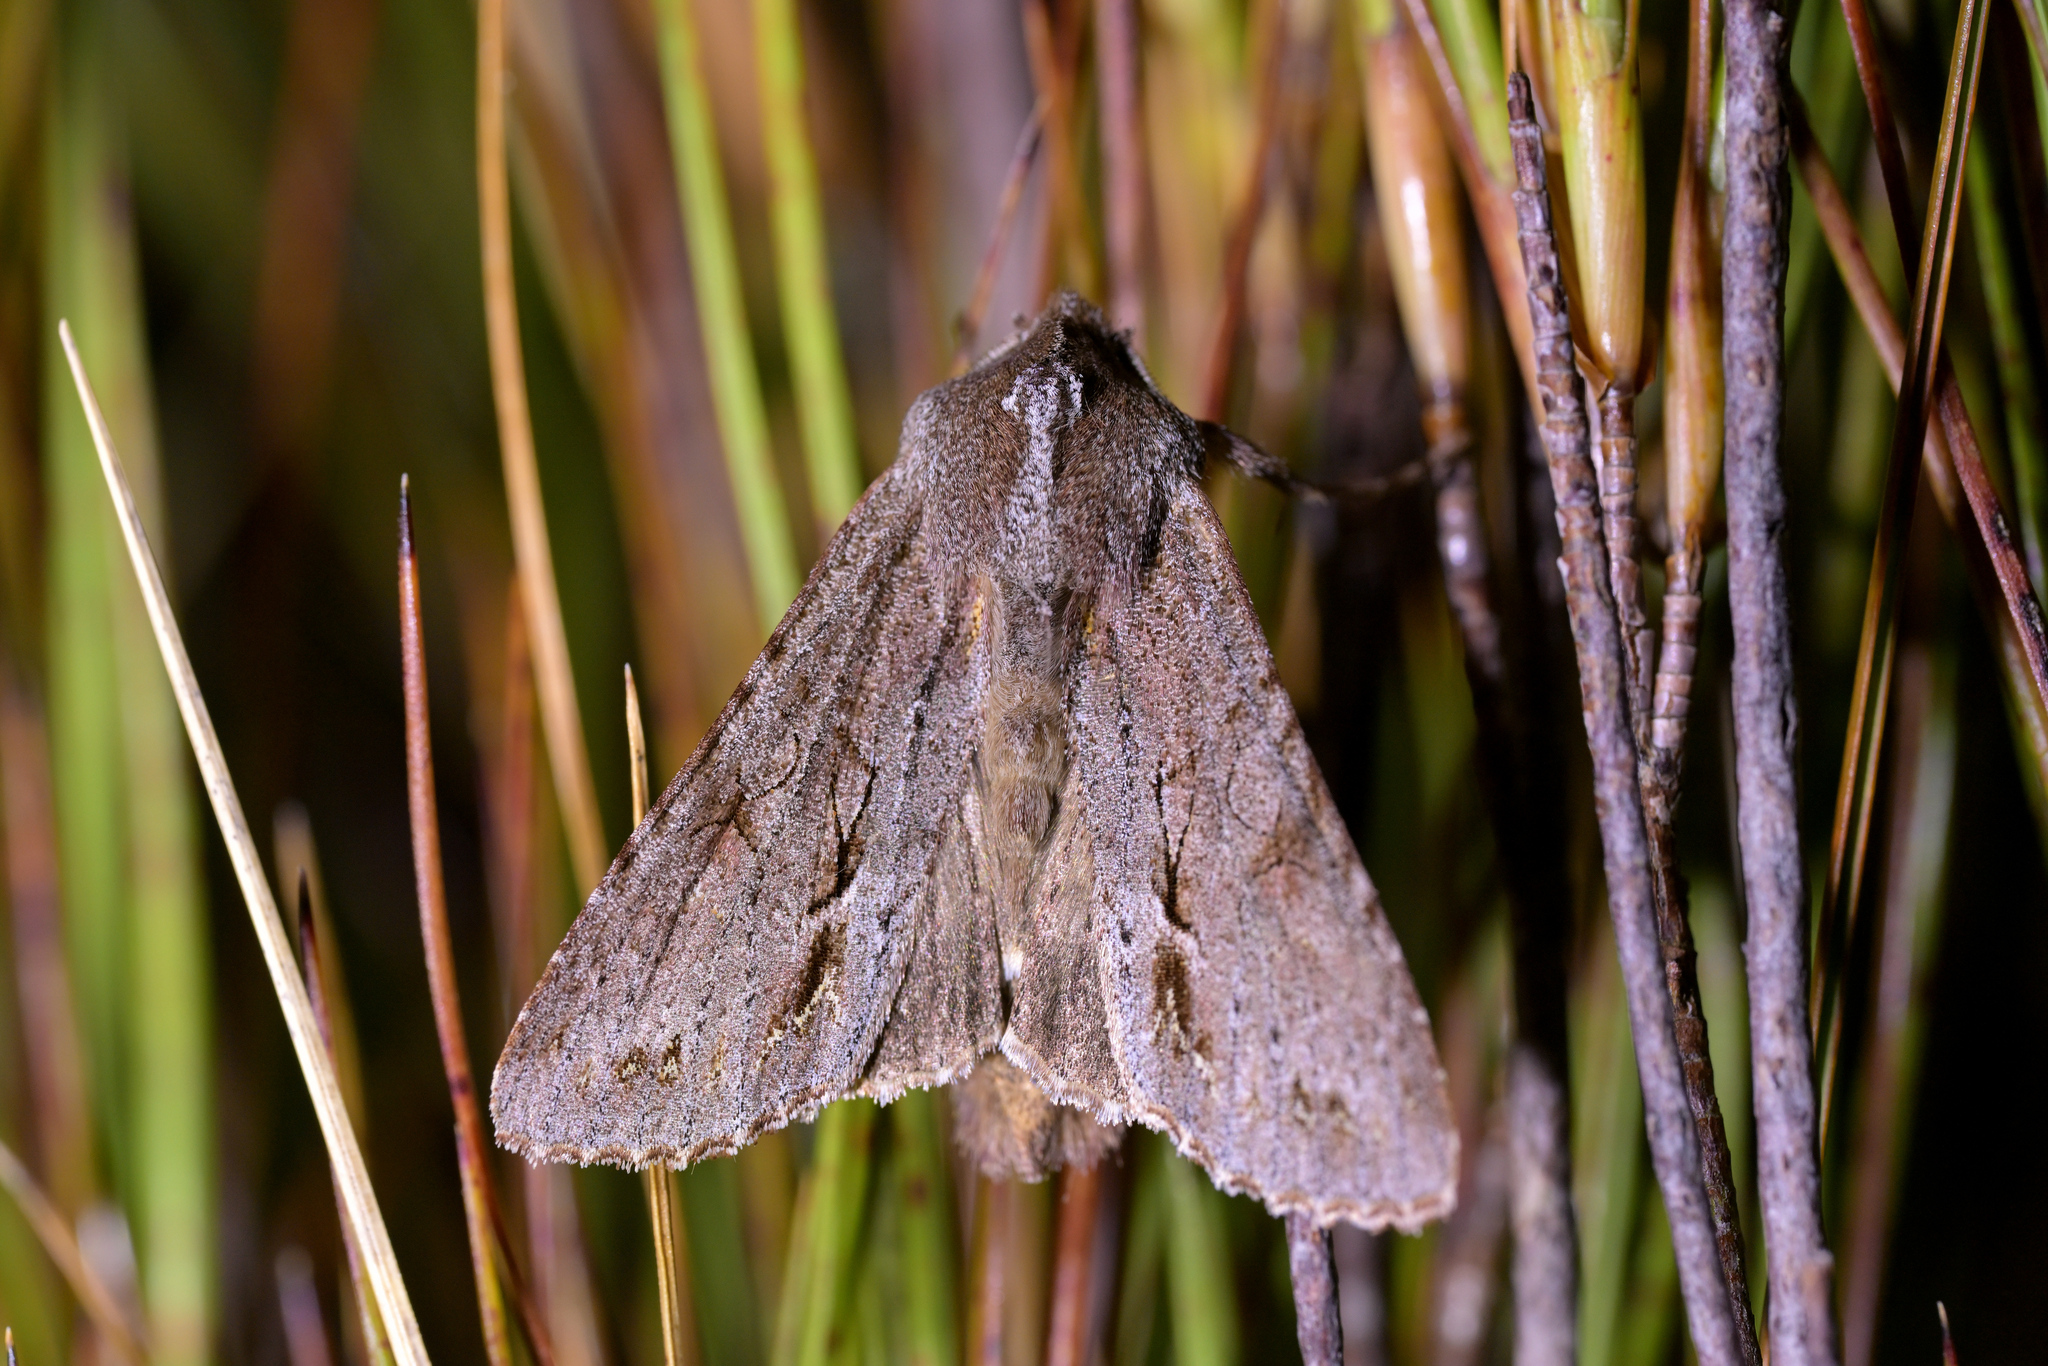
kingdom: Animalia
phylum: Arthropoda
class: Insecta
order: Lepidoptera
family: Noctuidae
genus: Ichneutica
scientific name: Ichneutica
